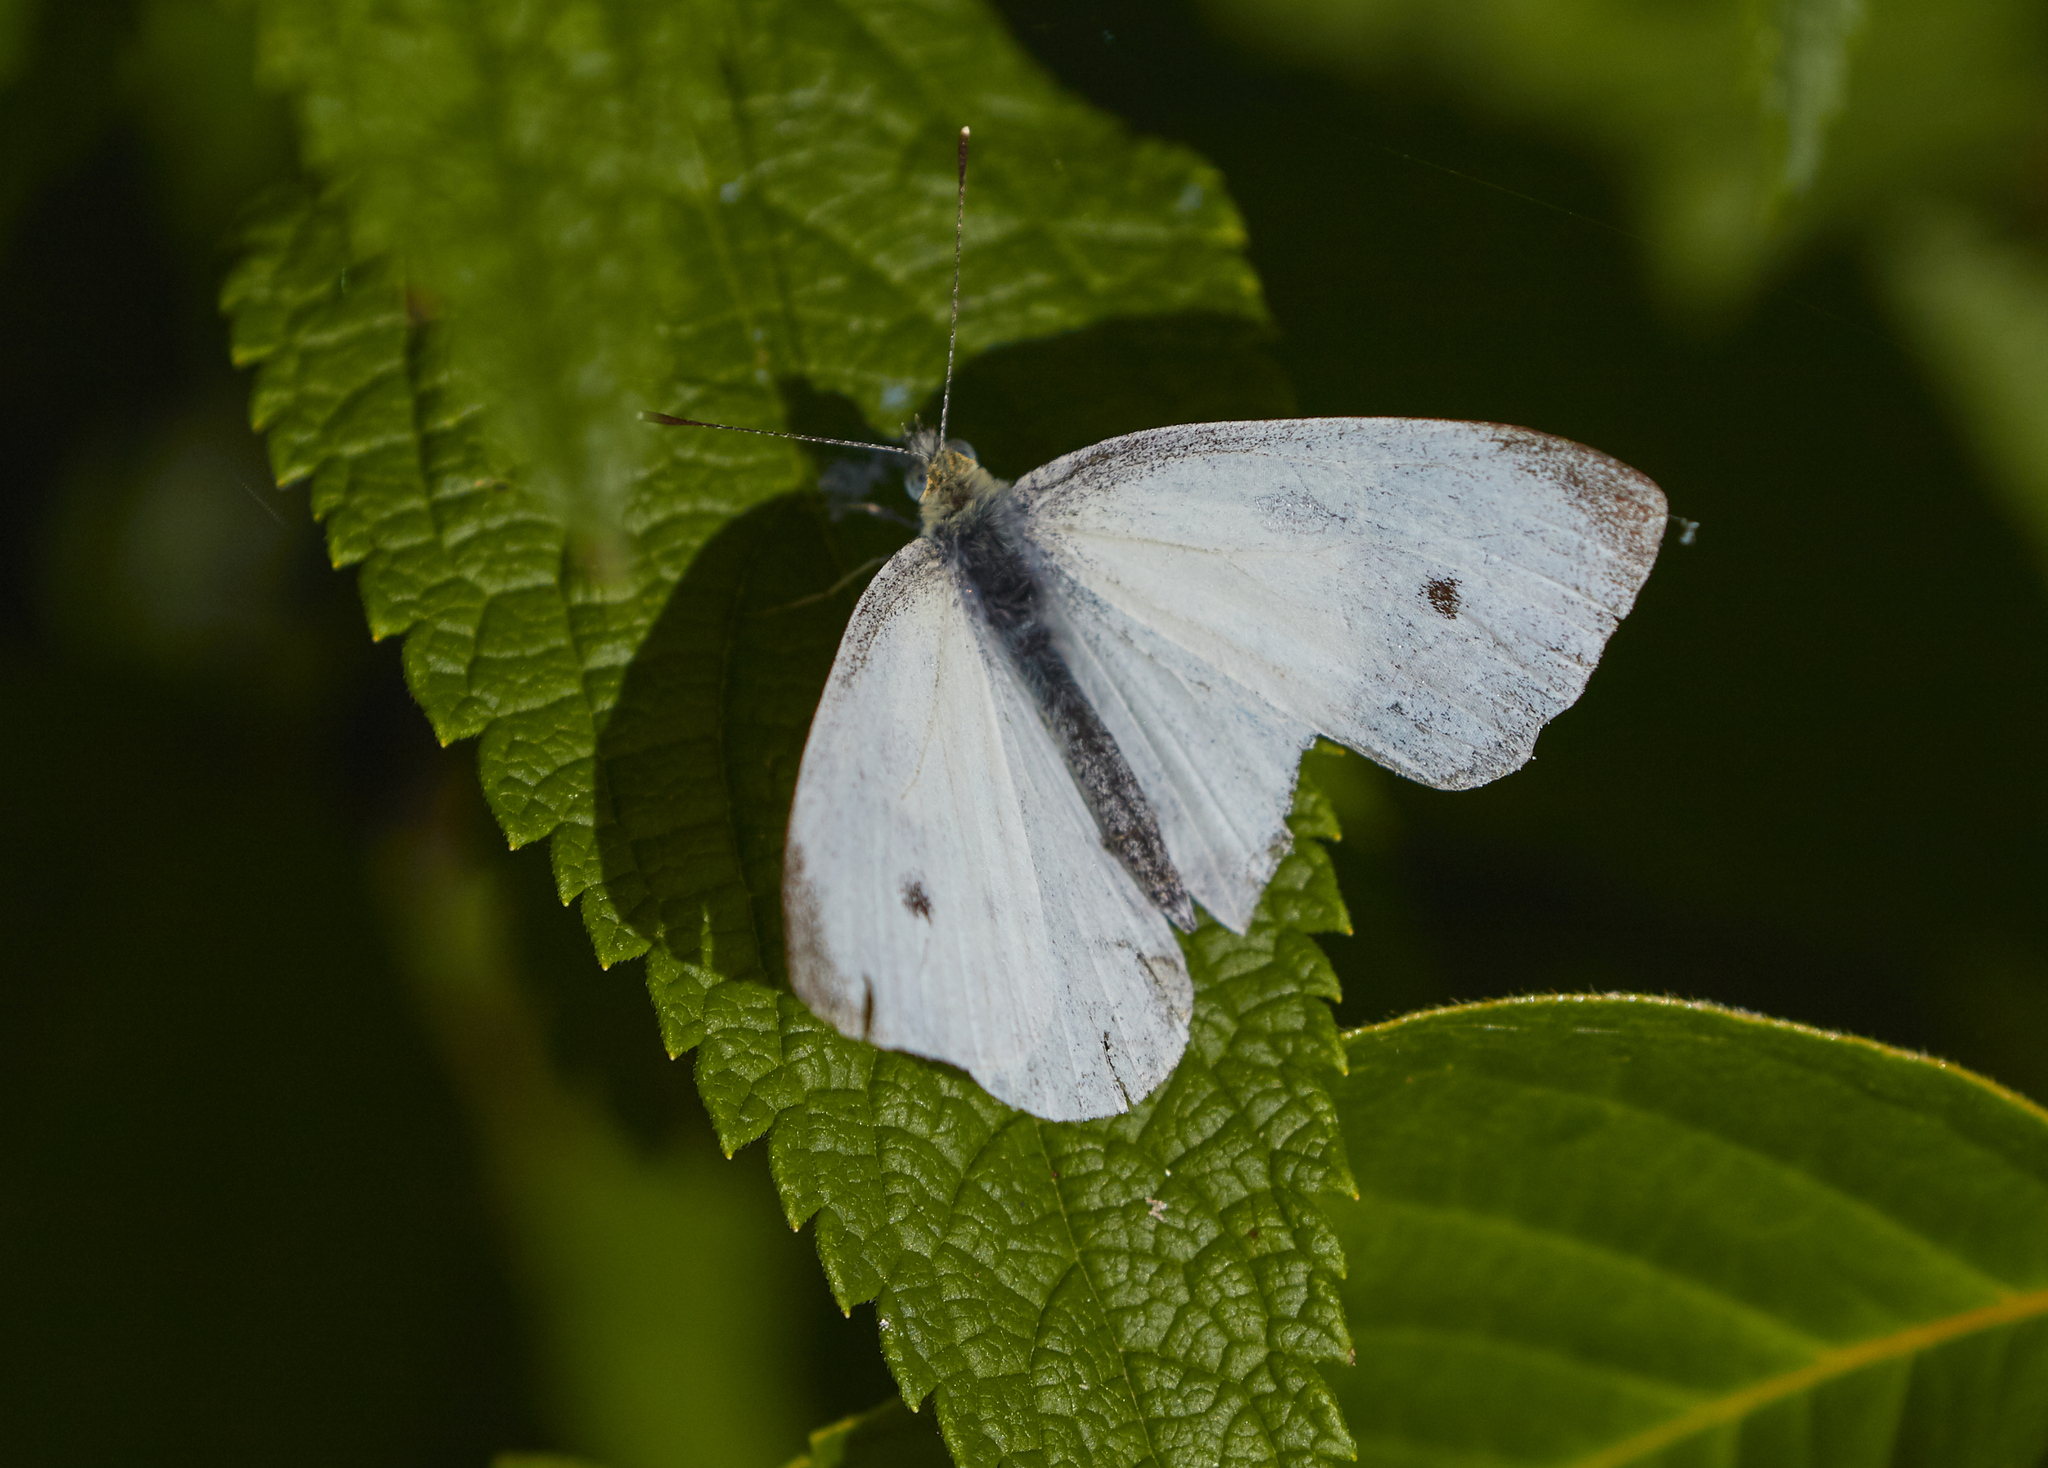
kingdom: Animalia
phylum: Arthropoda
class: Insecta
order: Lepidoptera
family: Pieridae
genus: Pieris
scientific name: Pieris rapae
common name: Small white
